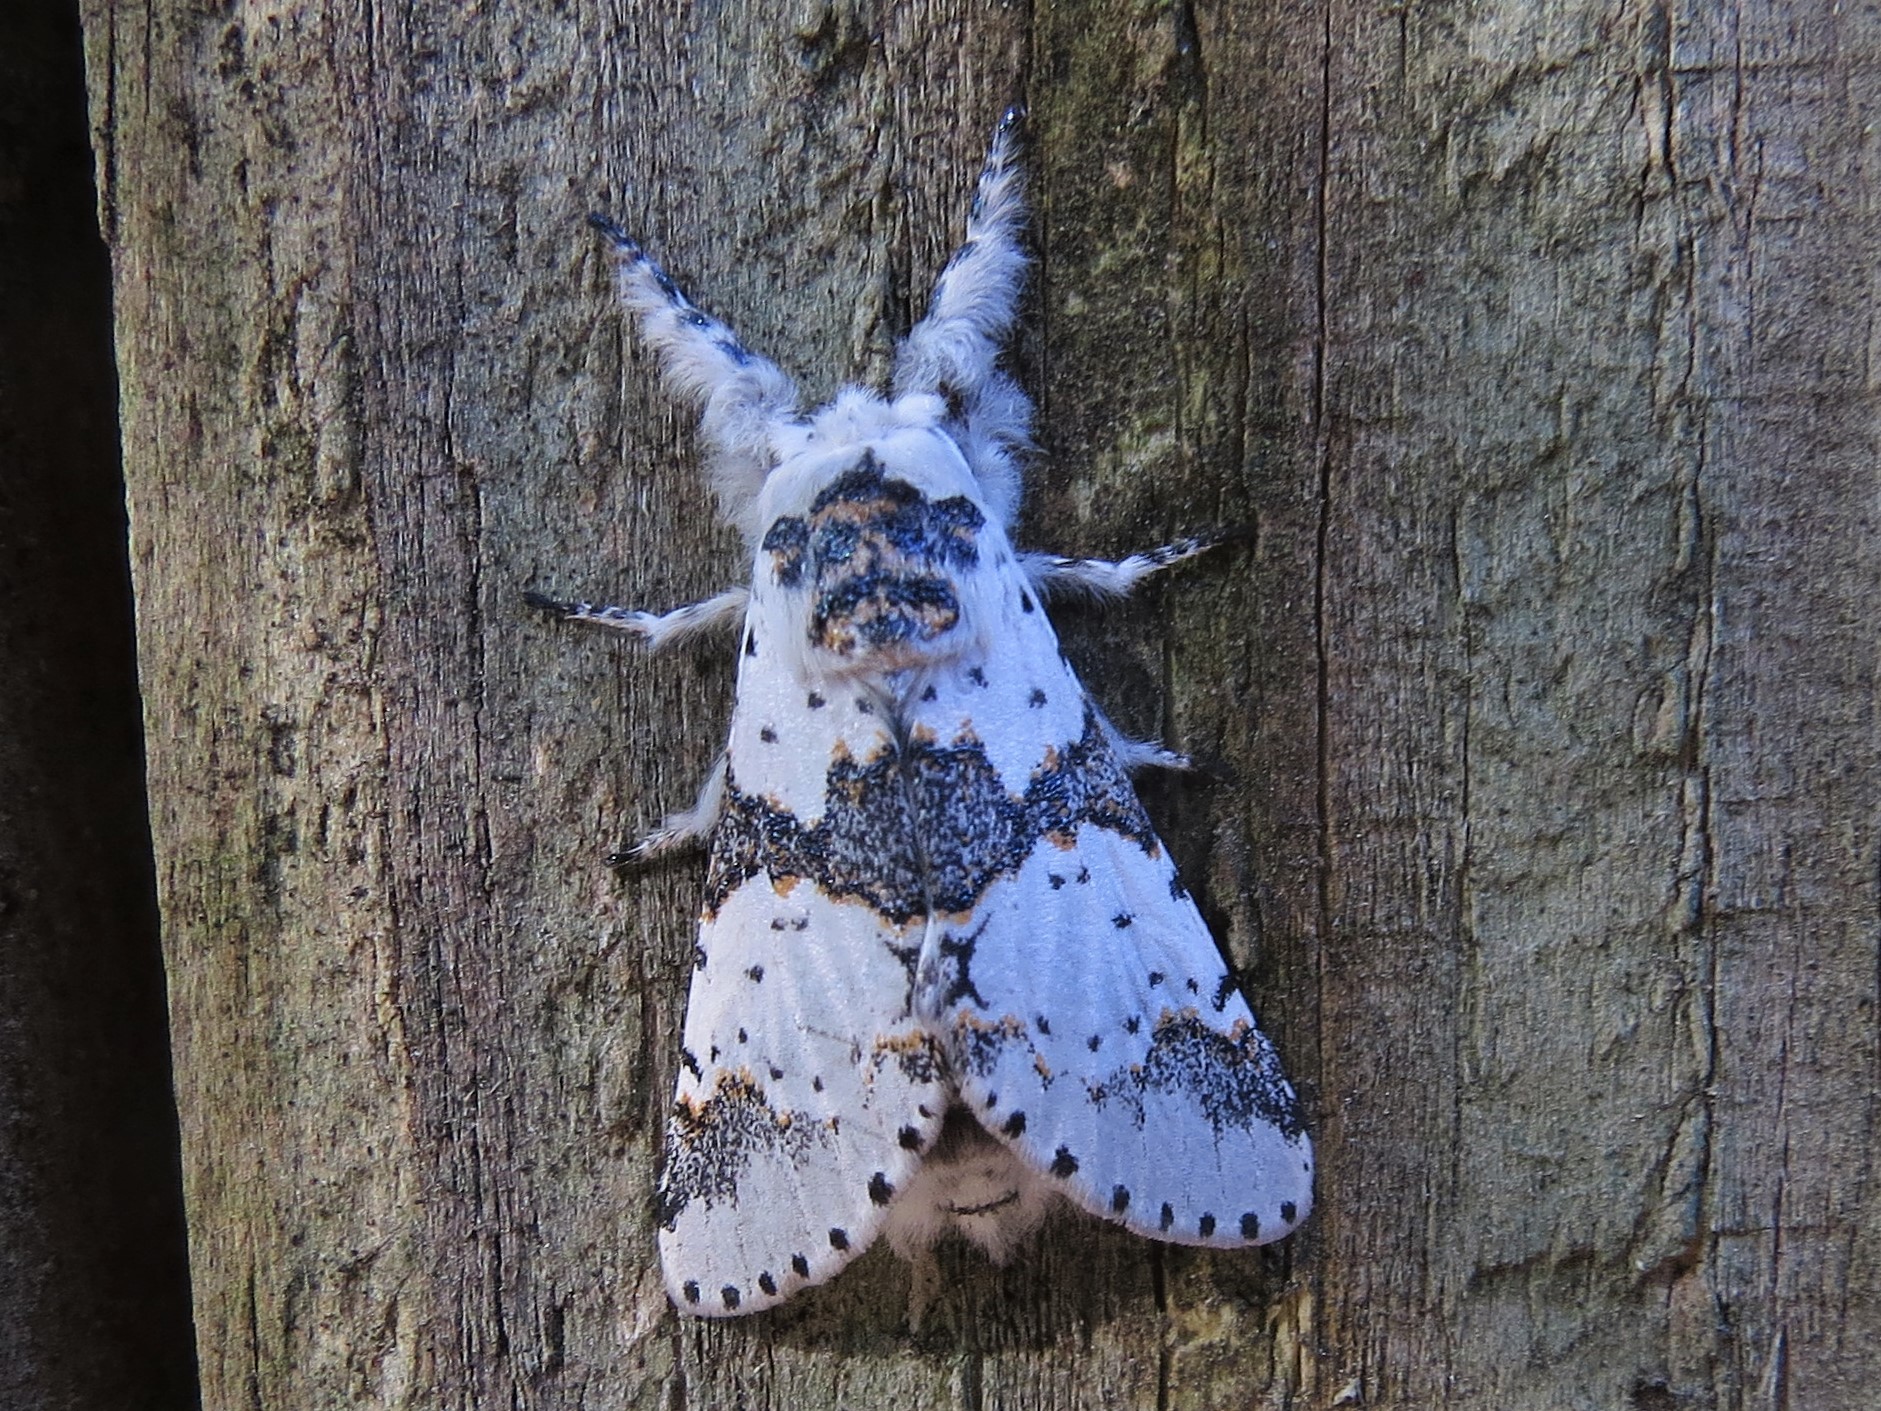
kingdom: Animalia
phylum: Arthropoda
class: Insecta
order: Lepidoptera
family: Notodontidae
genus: Furcula
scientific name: Furcula borealis
